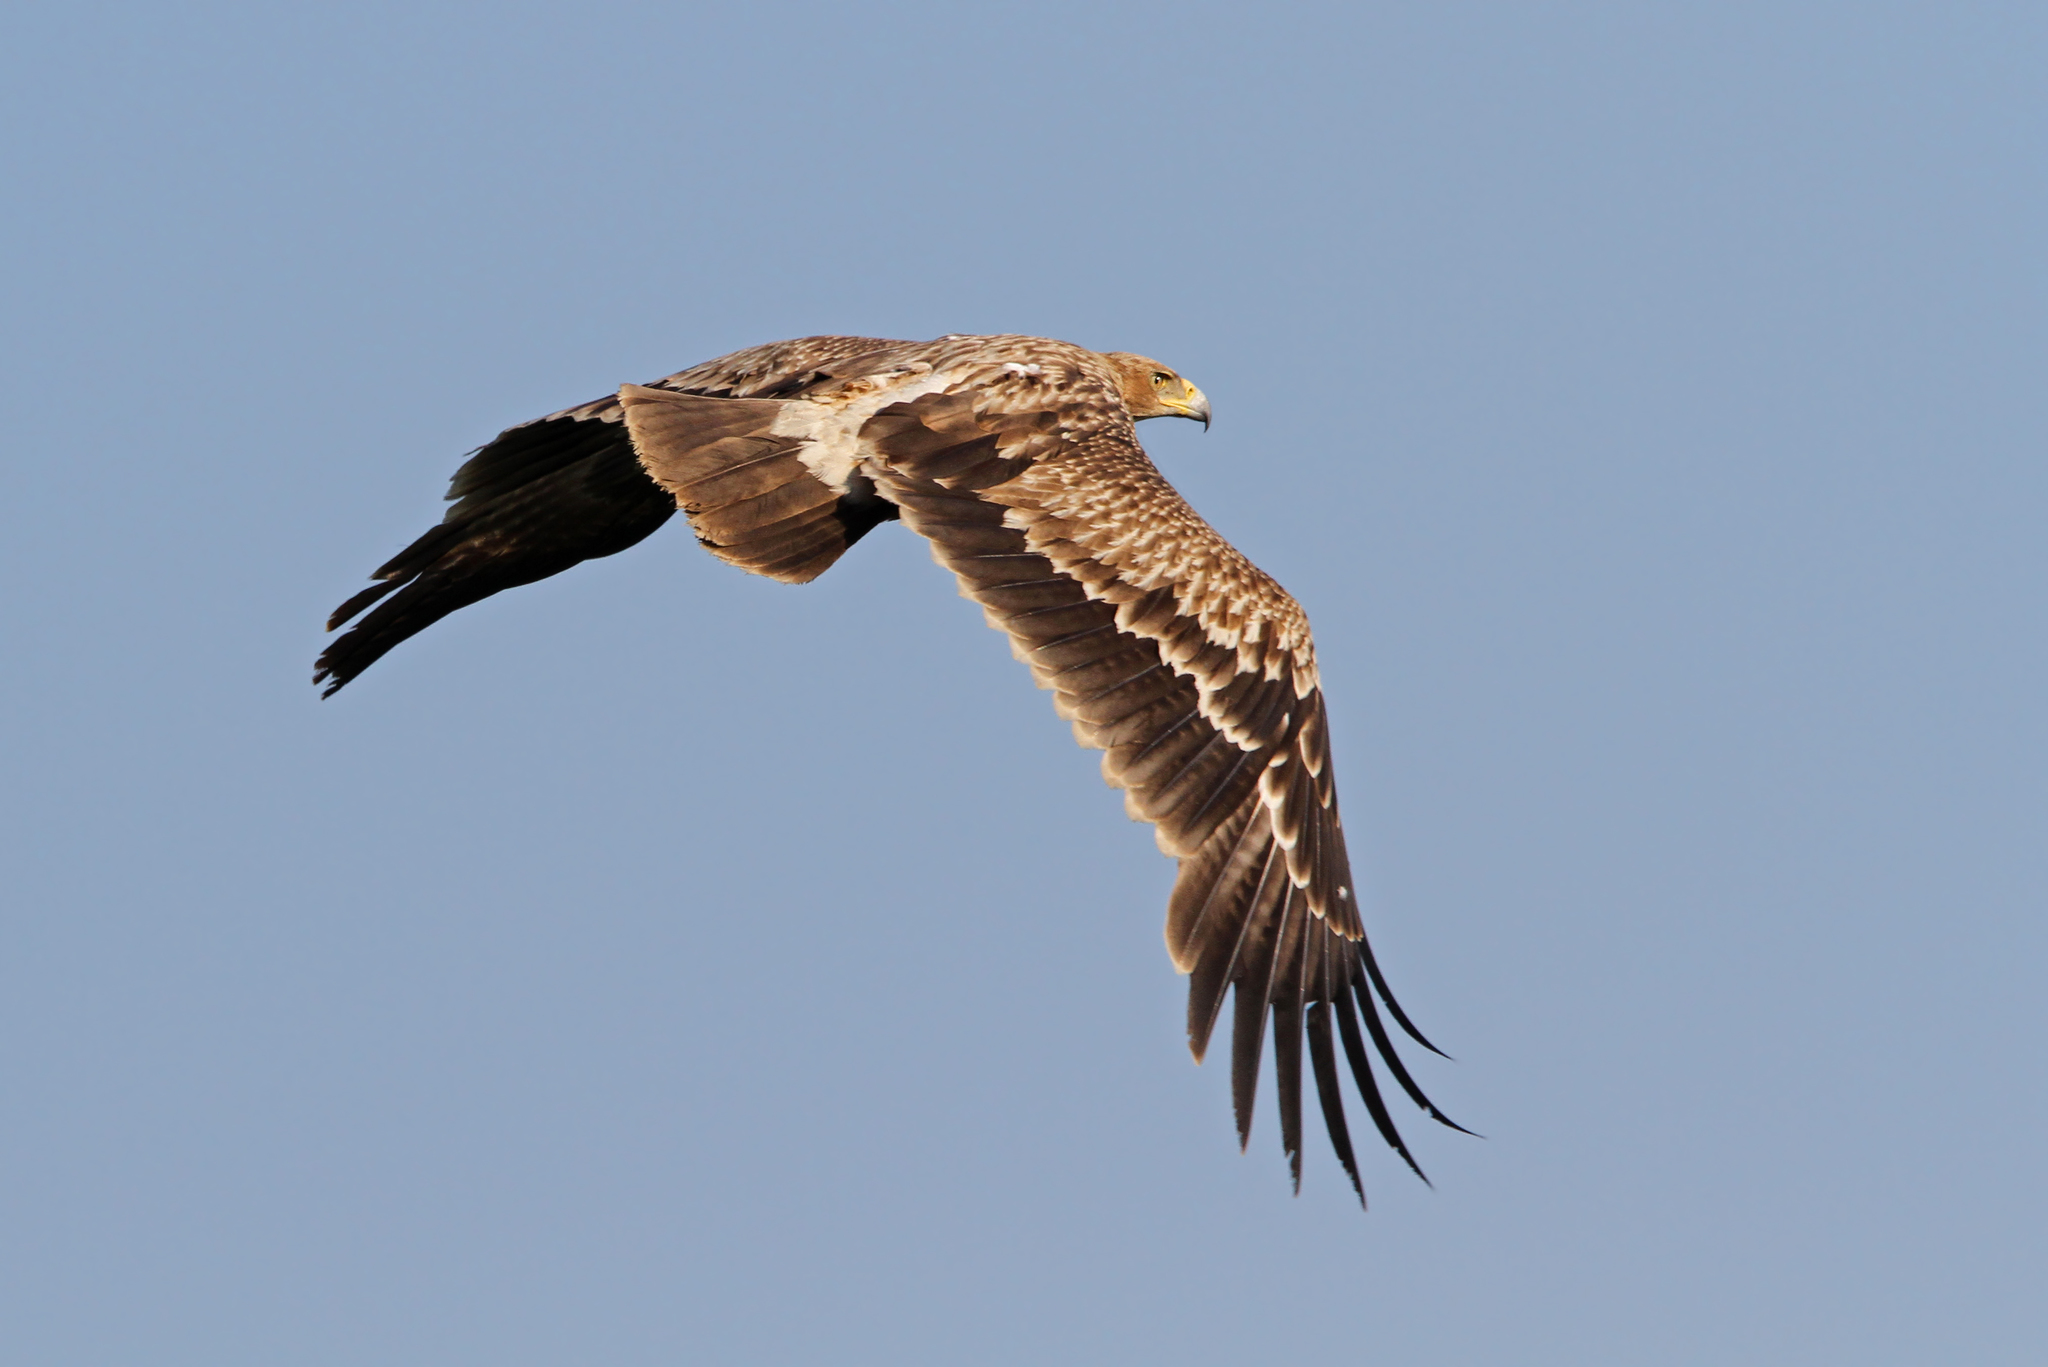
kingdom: Animalia
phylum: Chordata
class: Aves
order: Accipitriformes
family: Accipitridae
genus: Aquila
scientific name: Aquila heliaca
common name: Eastern imperial eagle
